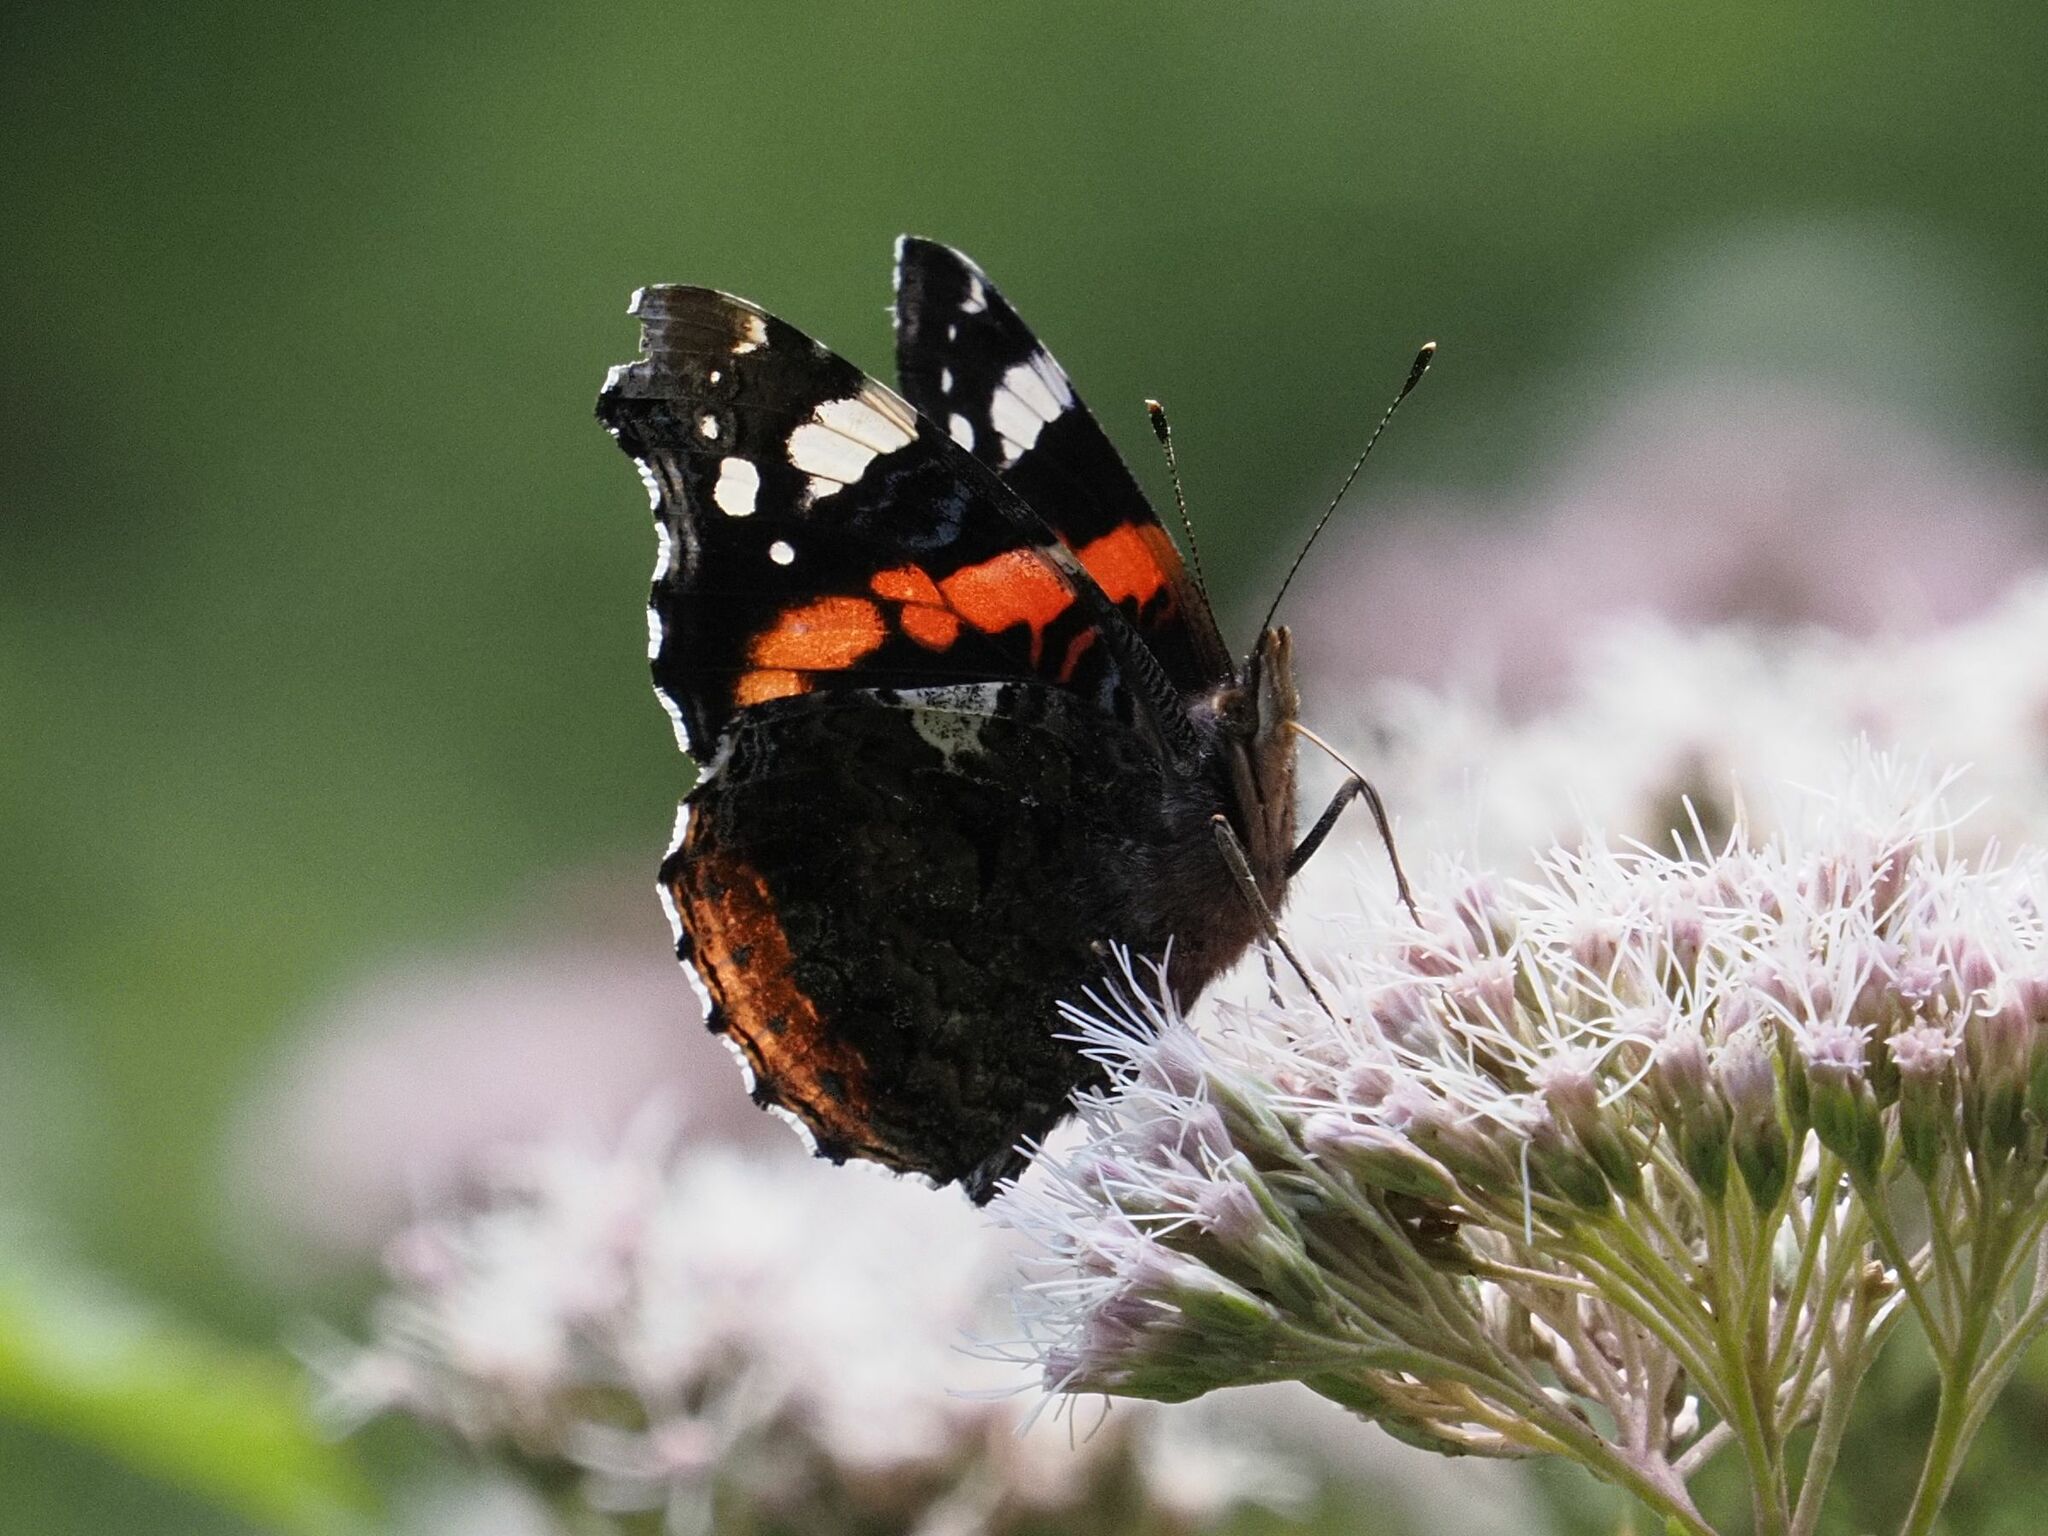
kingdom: Animalia
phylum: Arthropoda
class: Insecta
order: Lepidoptera
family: Nymphalidae
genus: Vanessa
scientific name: Vanessa atalanta
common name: Red admiral
